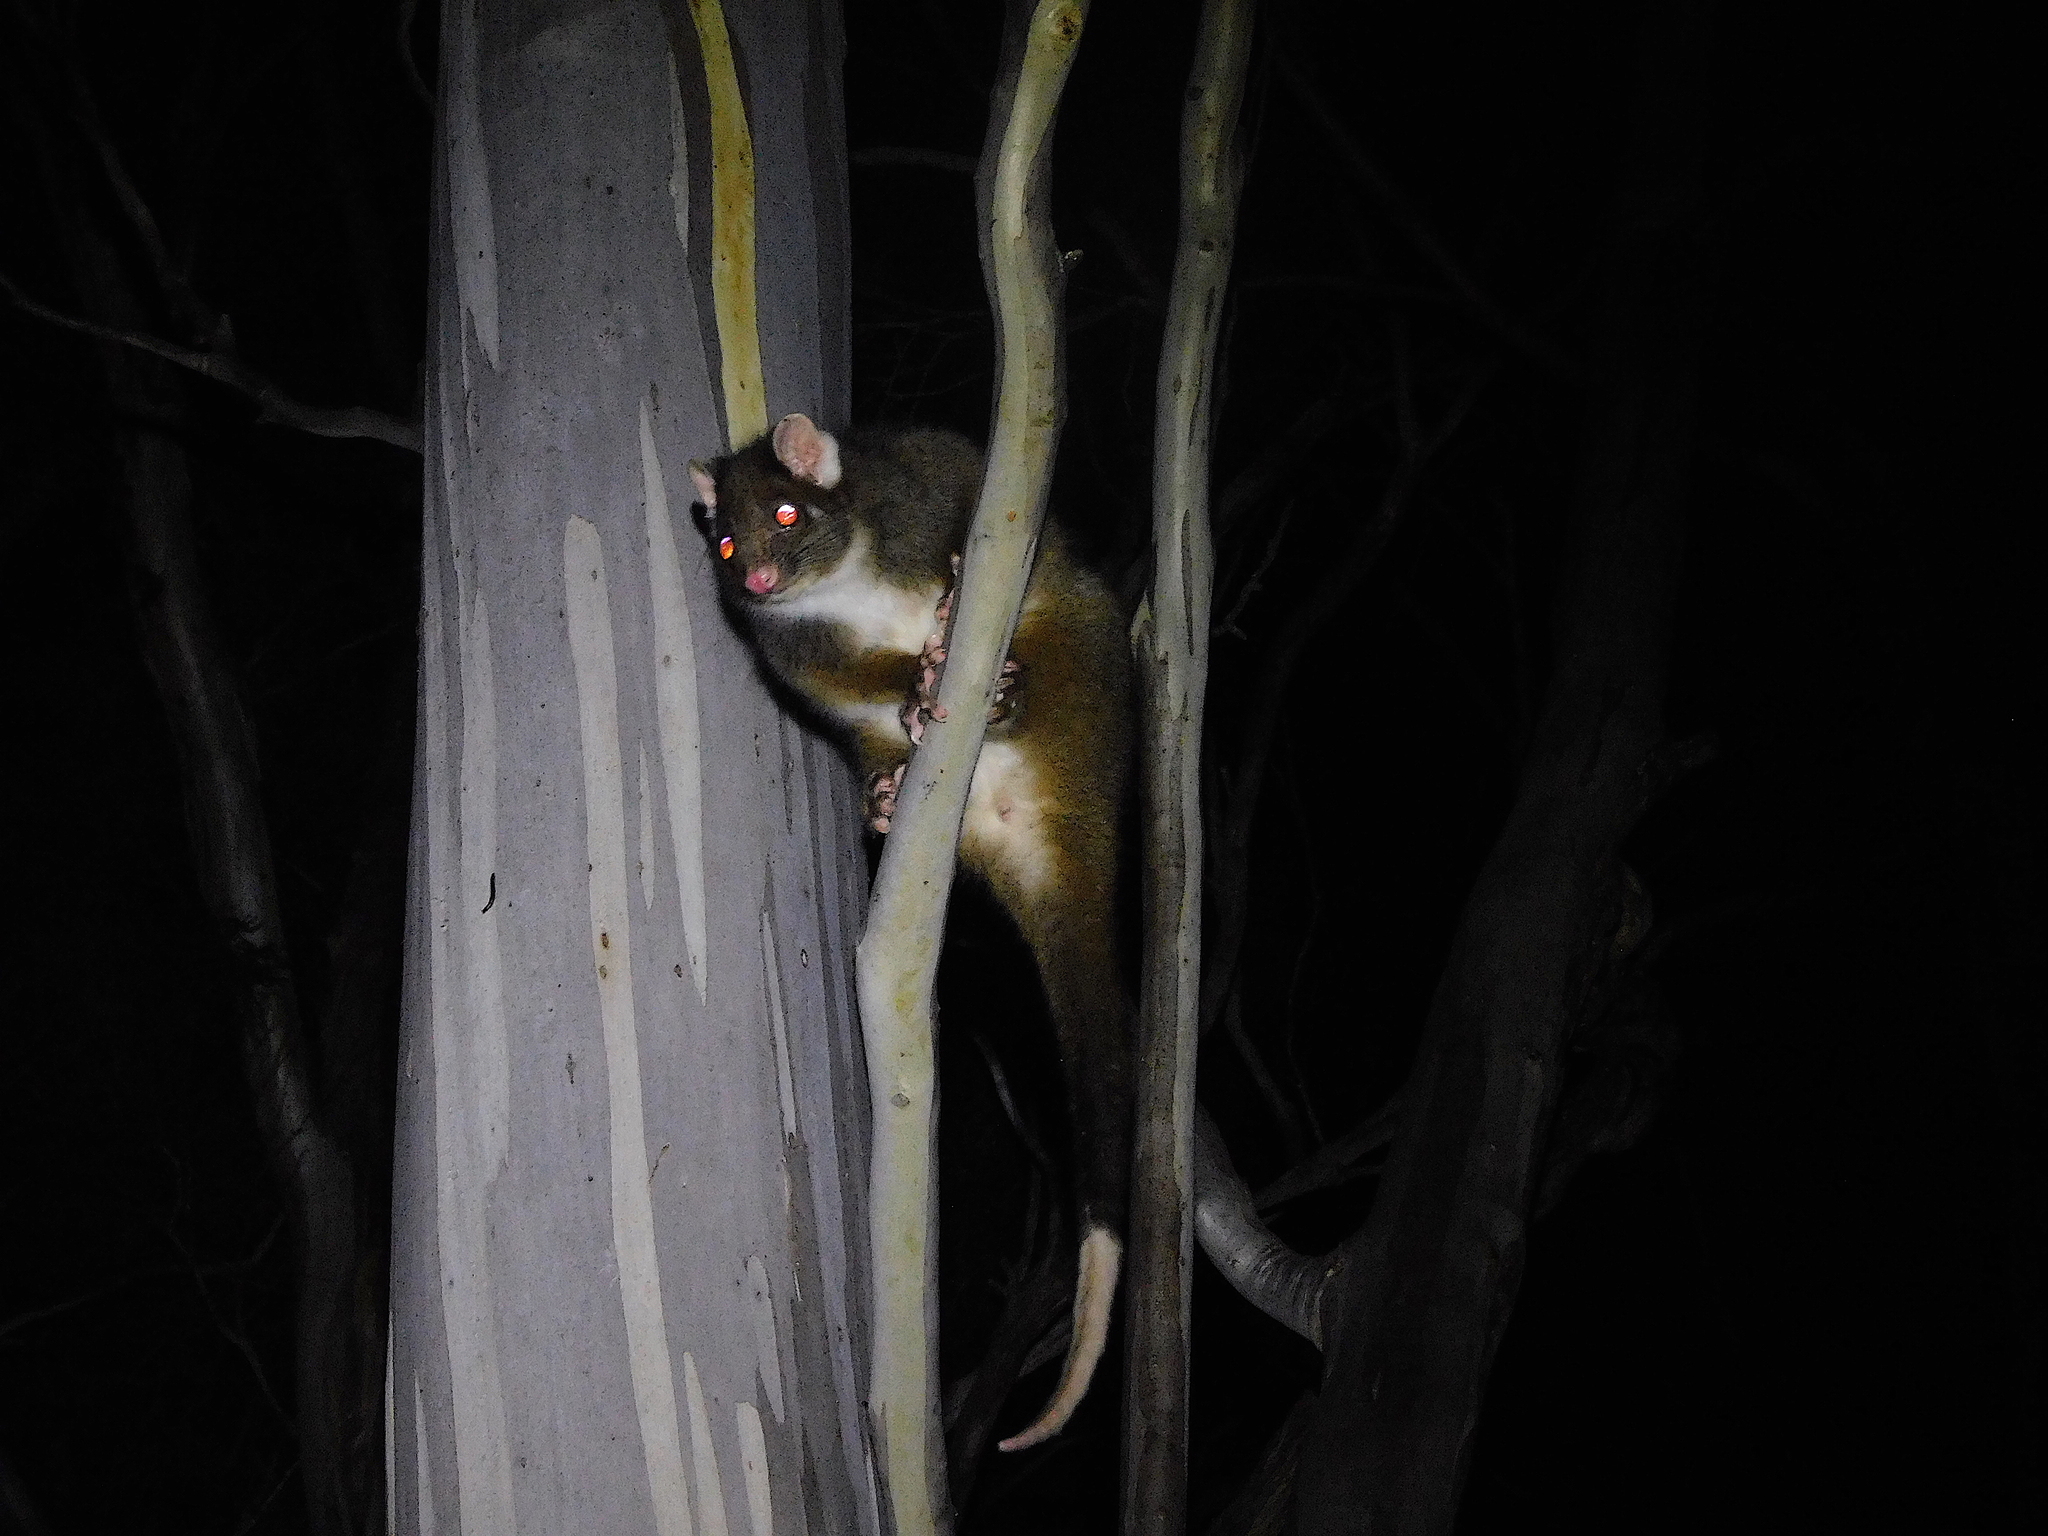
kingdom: Animalia
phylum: Chordata
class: Mammalia
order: Diprotodontia
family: Pseudocheiridae
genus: Pseudocheirus
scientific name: Pseudocheirus peregrinus
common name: Common ringtail possum
